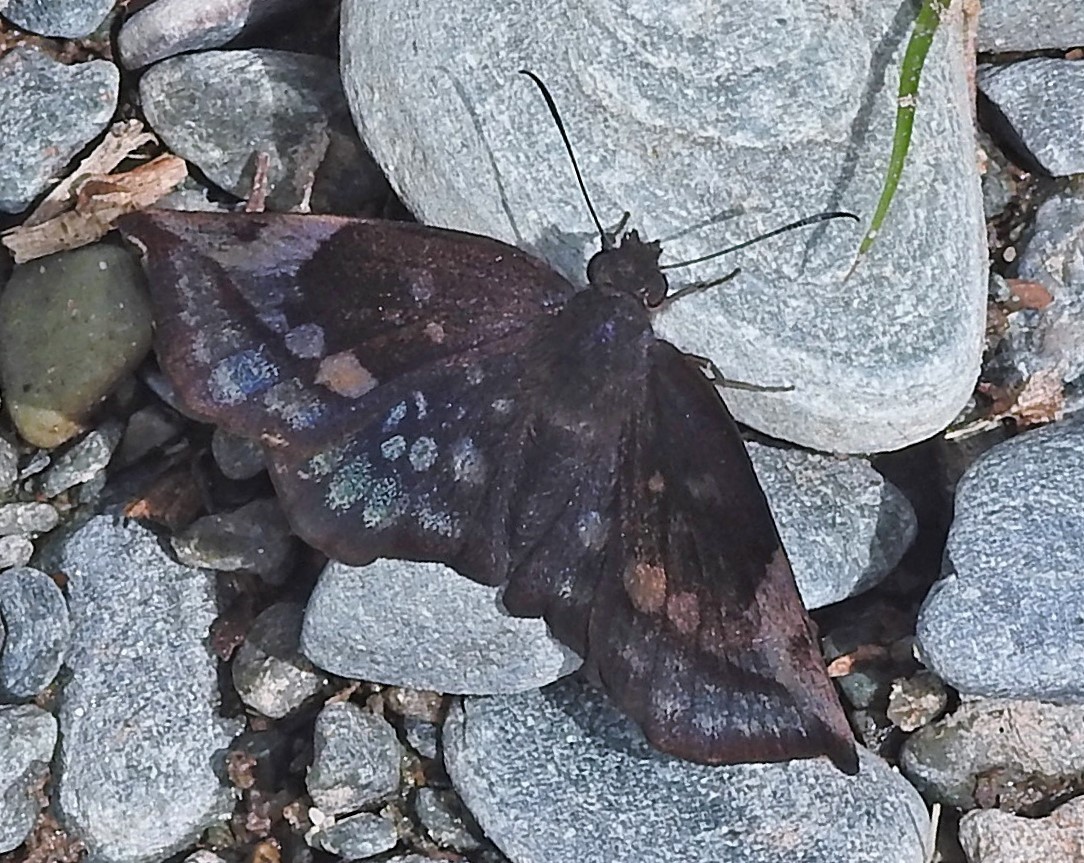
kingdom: Animalia
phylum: Arthropoda
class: Insecta
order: Lepidoptera
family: Hesperiidae
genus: Achlyodes
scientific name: Achlyodes thraso
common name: Sickle-winged skipper
